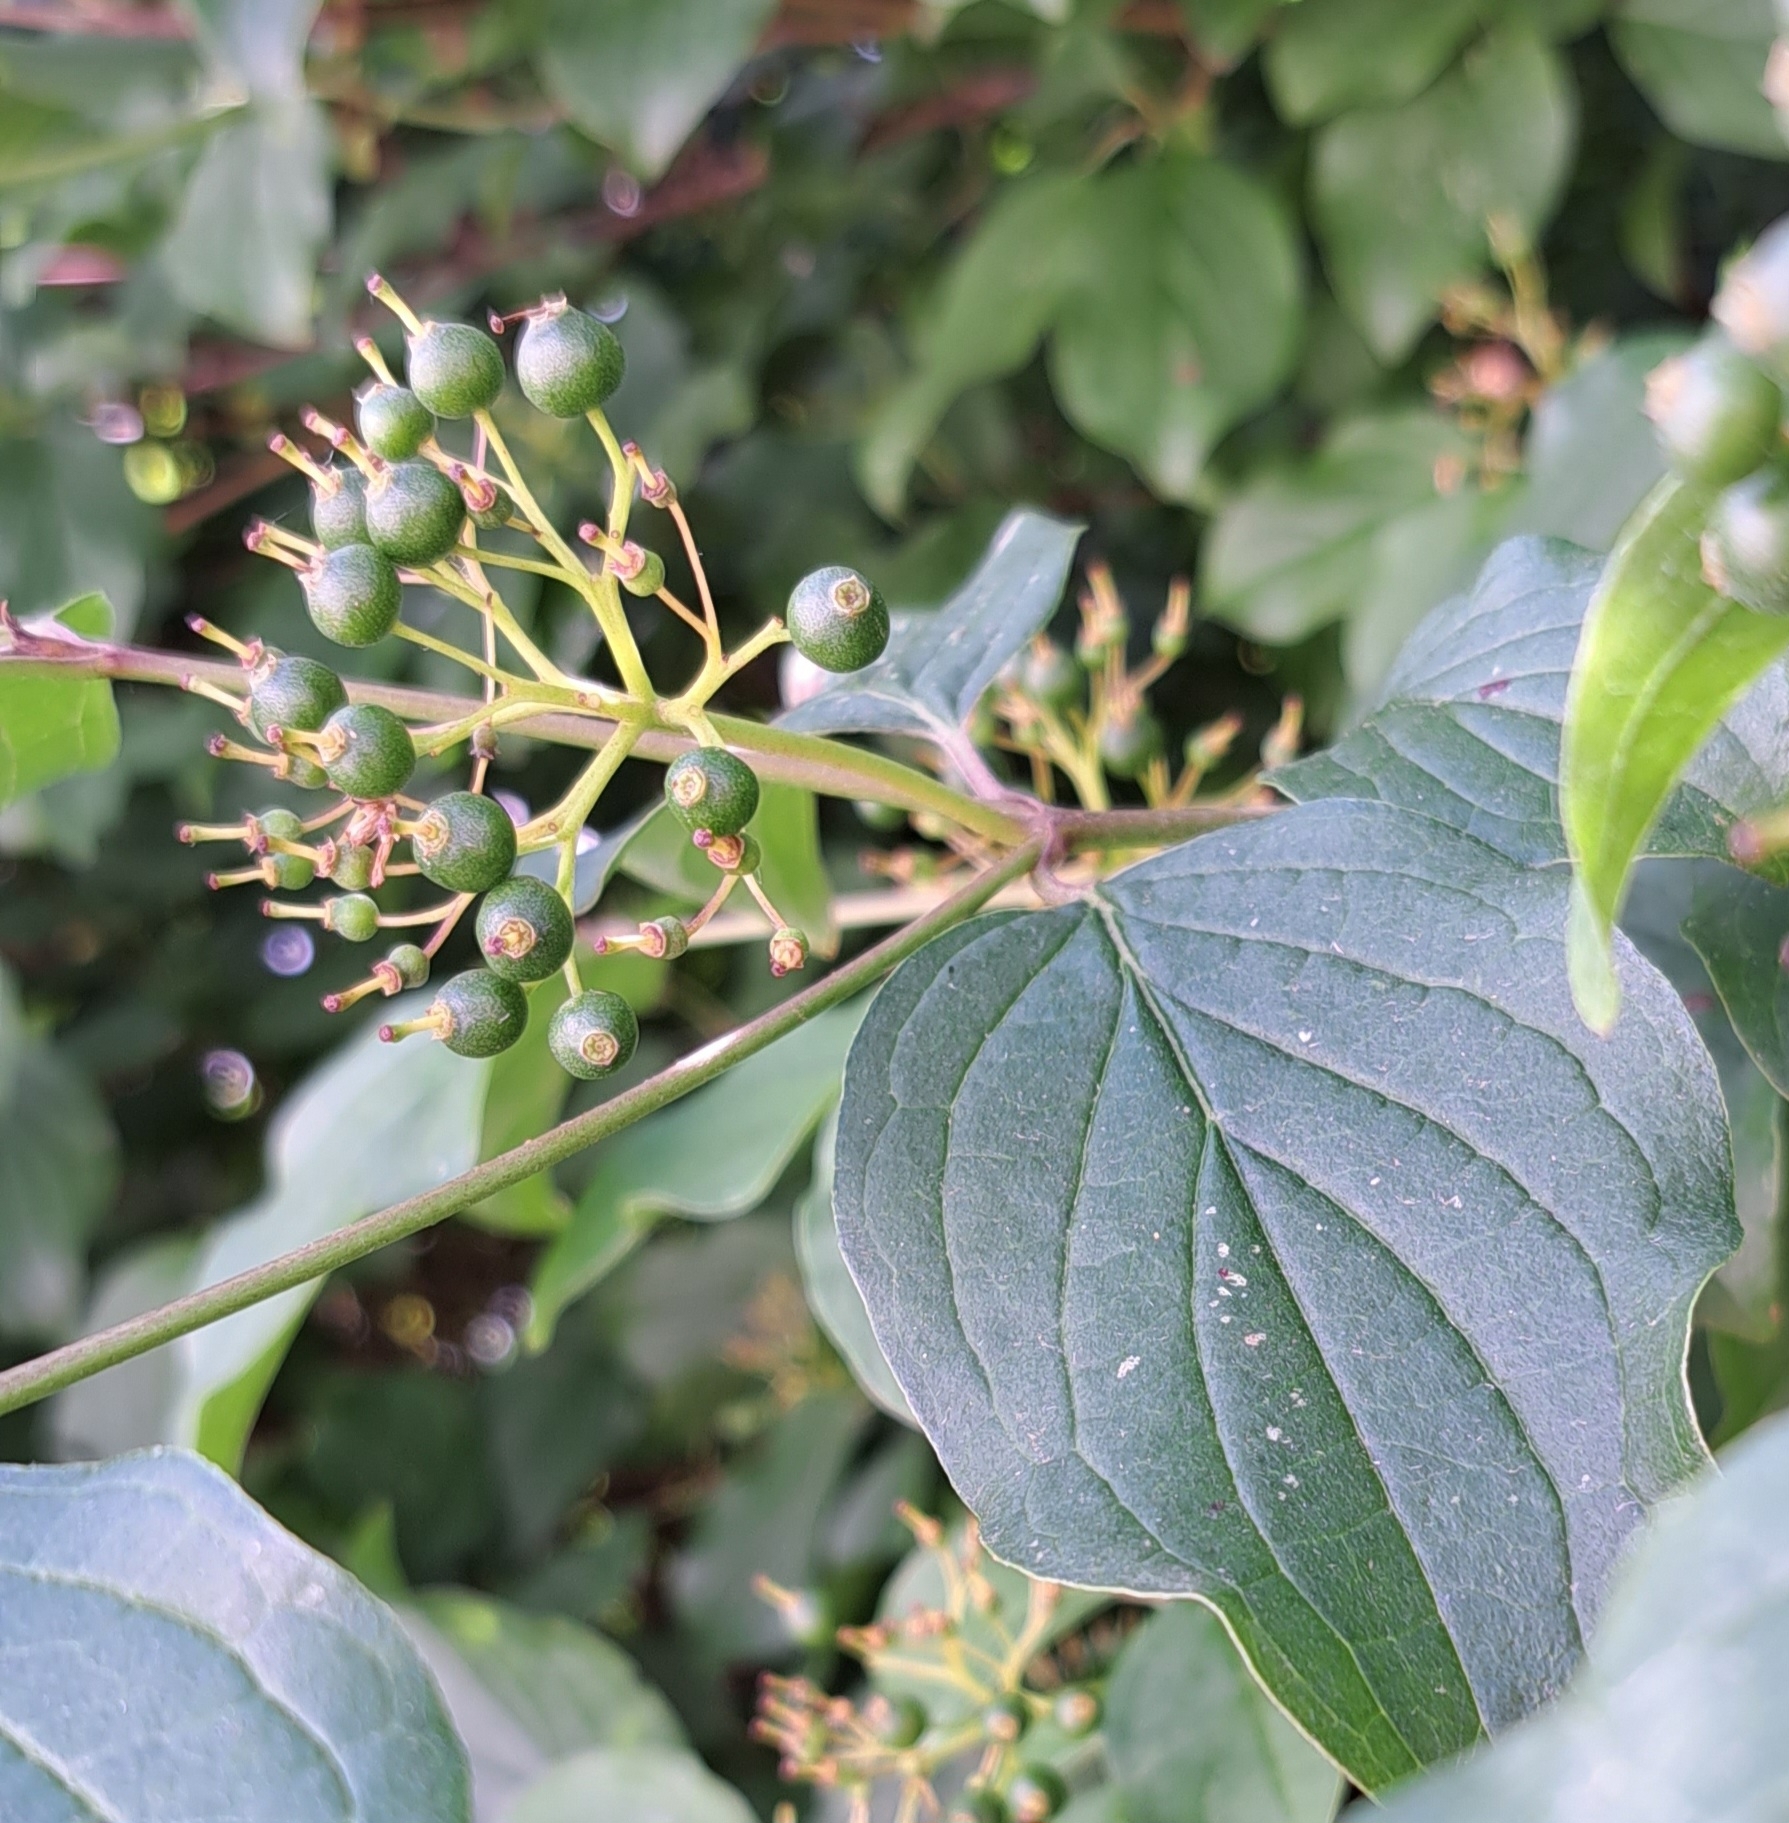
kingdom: Plantae
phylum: Tracheophyta
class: Magnoliopsida
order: Cornales
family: Cornaceae
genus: Cornus
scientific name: Cornus sanguinea
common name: Dogwood
